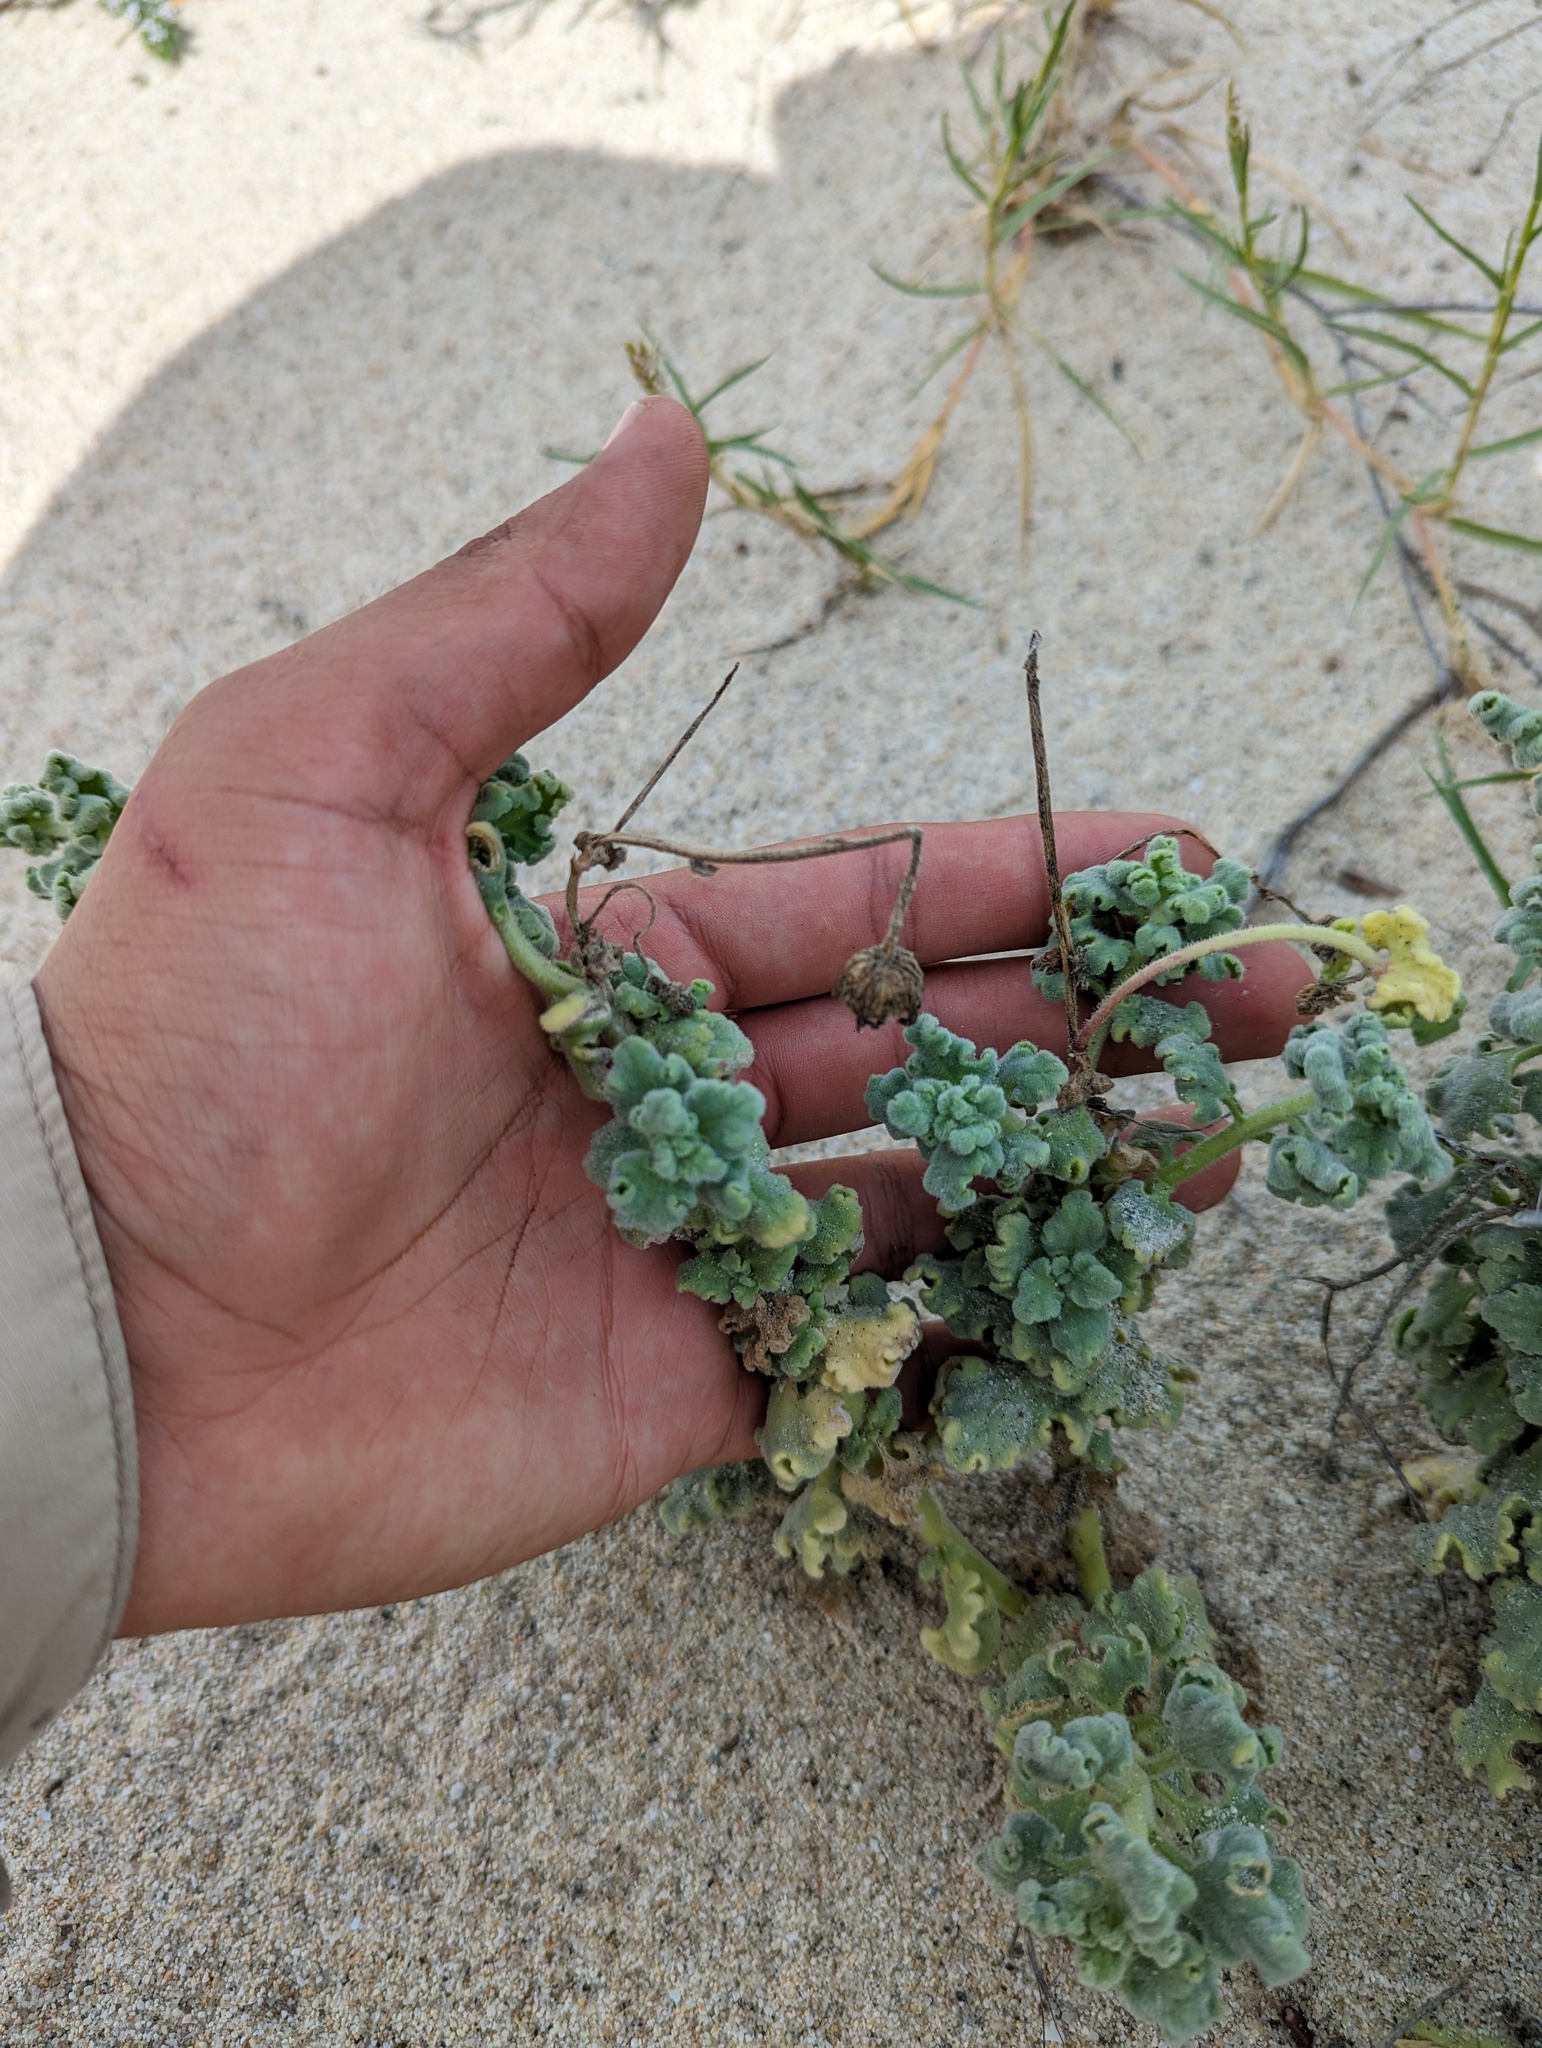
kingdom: Plantae
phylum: Tracheophyta
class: Magnoliopsida
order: Asterales
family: Asteraceae
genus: Perityle
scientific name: Perityle crassifolia
